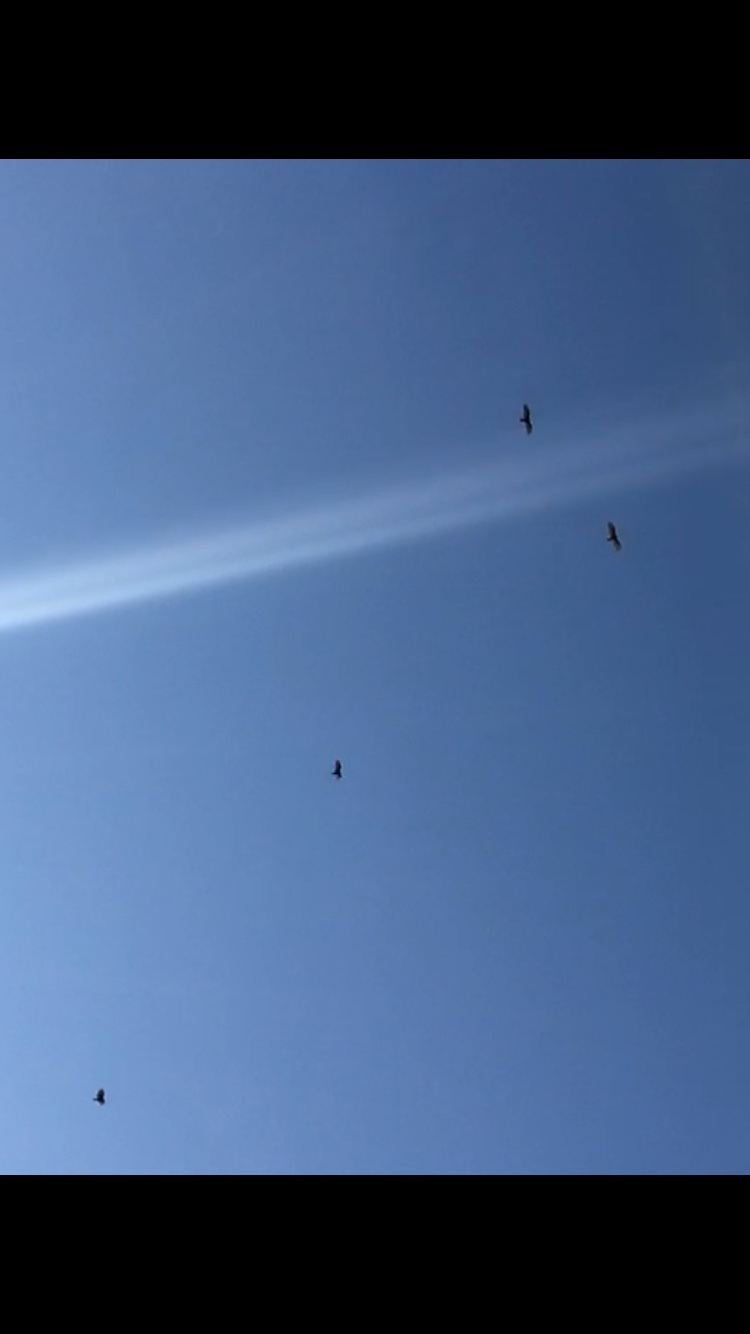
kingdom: Animalia
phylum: Chordata
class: Aves
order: Accipitriformes
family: Cathartidae
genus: Cathartes
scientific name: Cathartes aura
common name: Turkey vulture
